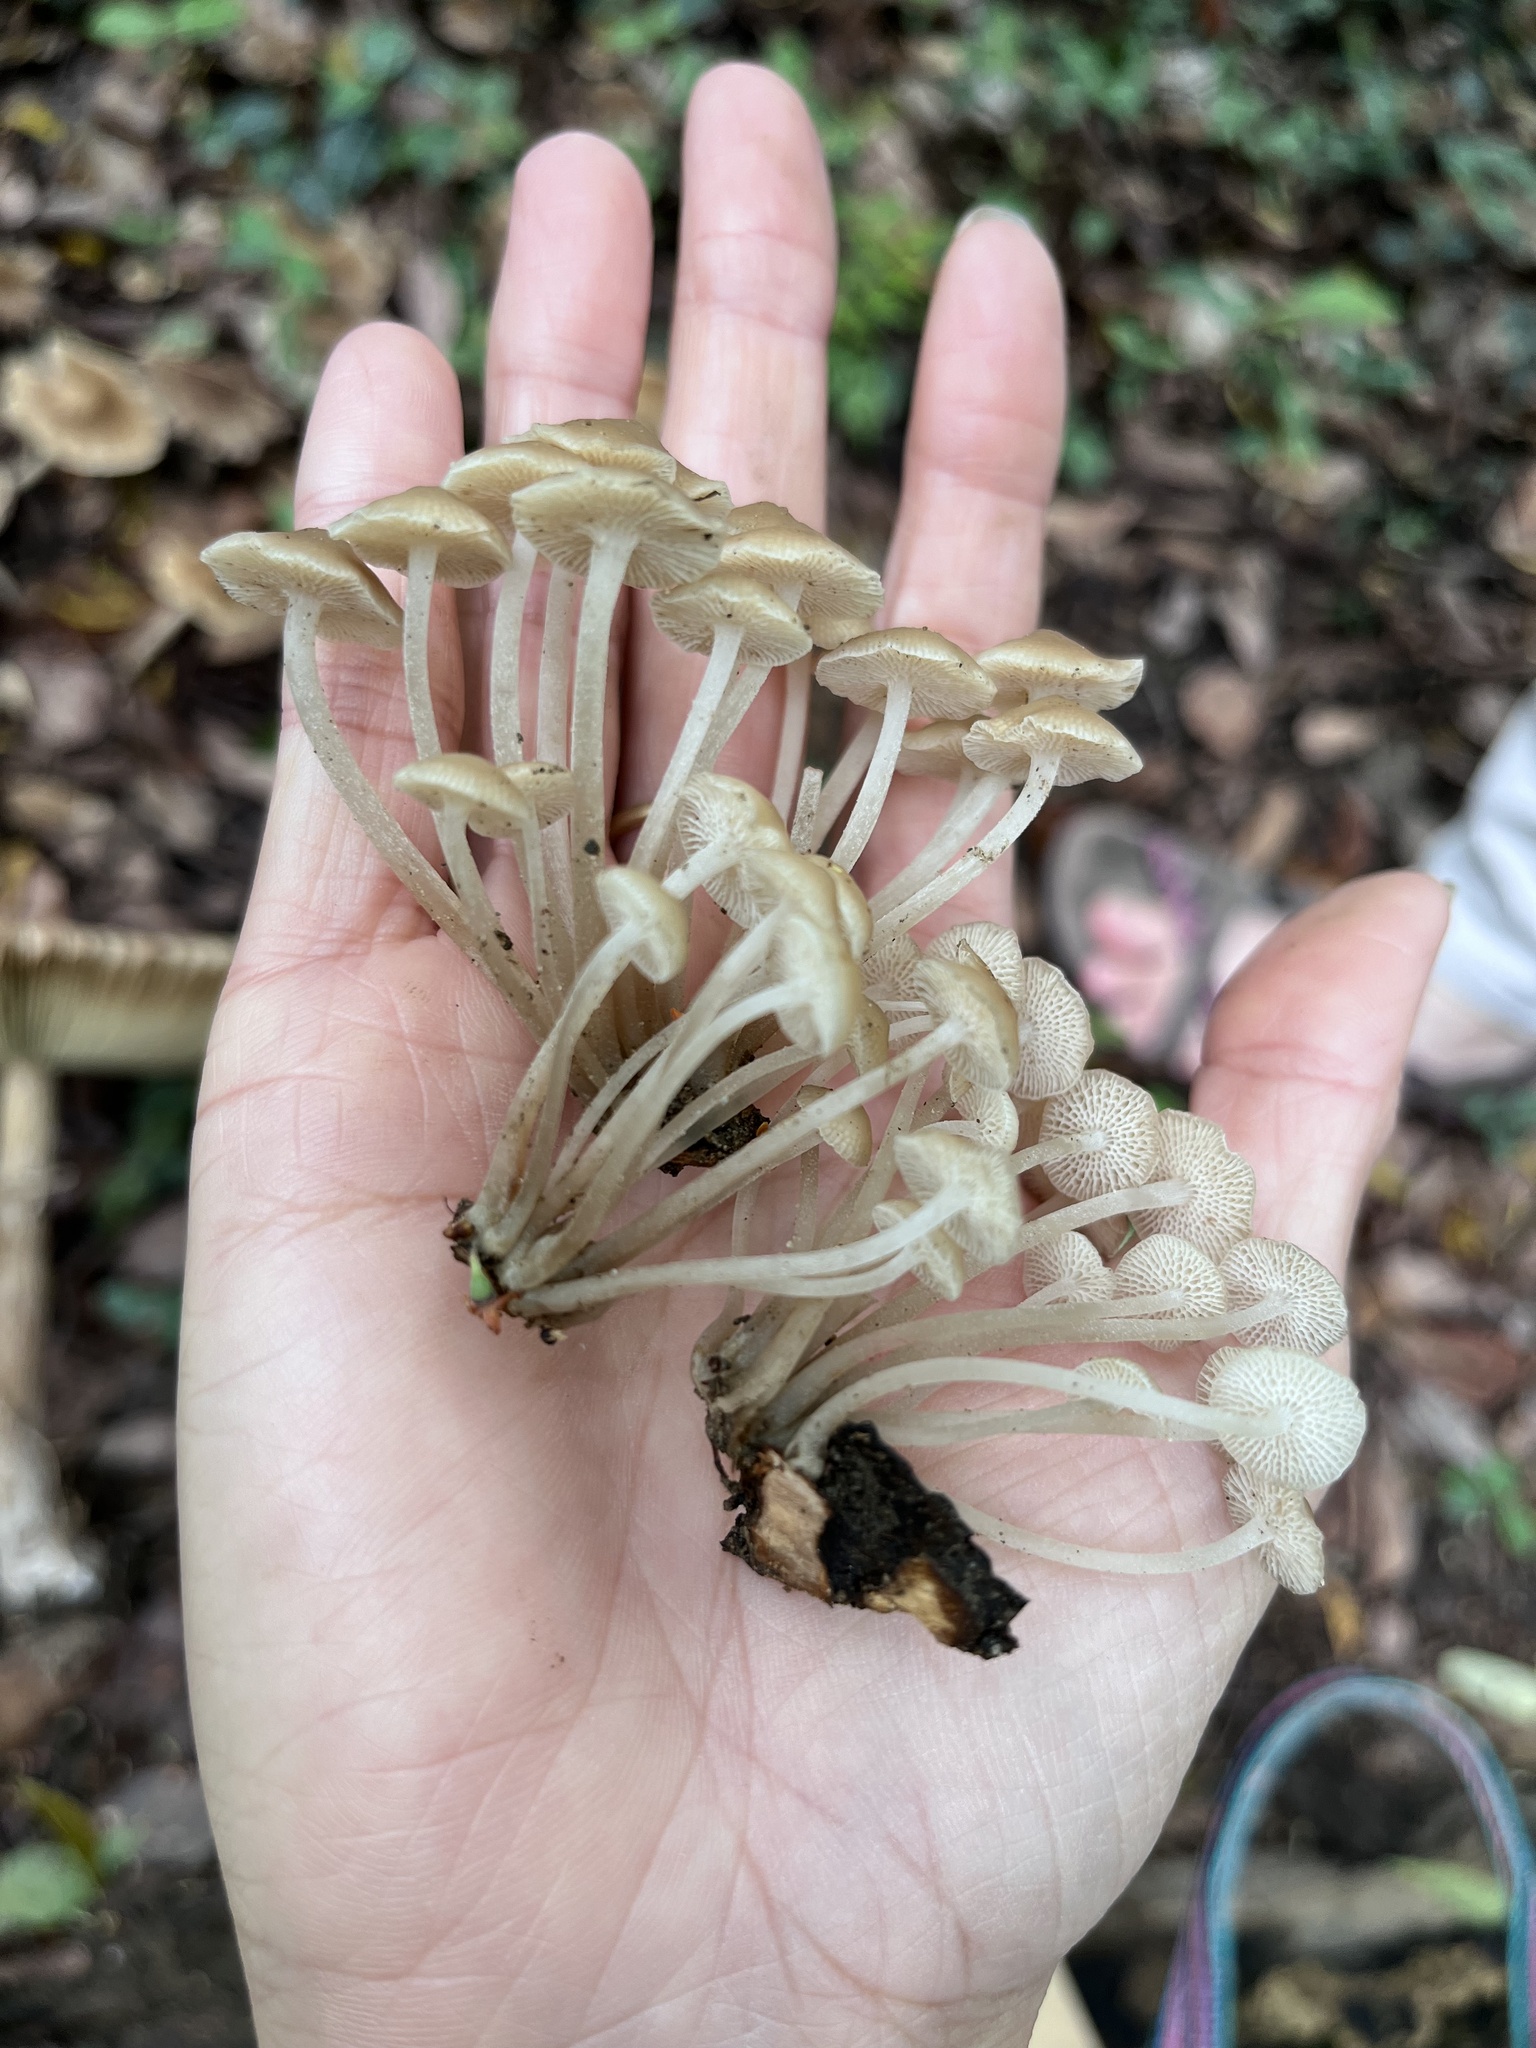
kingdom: Fungi
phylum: Basidiomycota
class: Agaricomycetes
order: Agaricales
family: Mycenaceae
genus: Filoboletus
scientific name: Filoboletus manipularis
